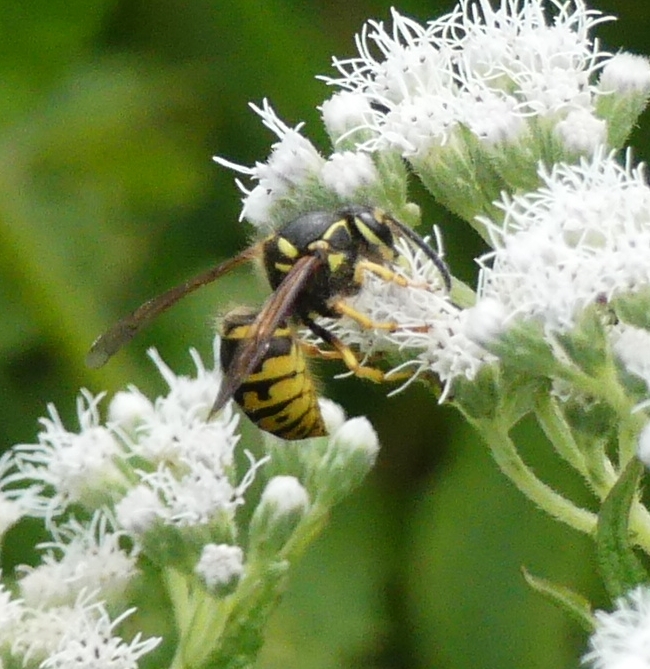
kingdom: Animalia
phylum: Arthropoda
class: Insecta
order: Hymenoptera
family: Vespidae
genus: Dolichovespula
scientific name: Dolichovespula arenaria
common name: Aerial yellowjacket
